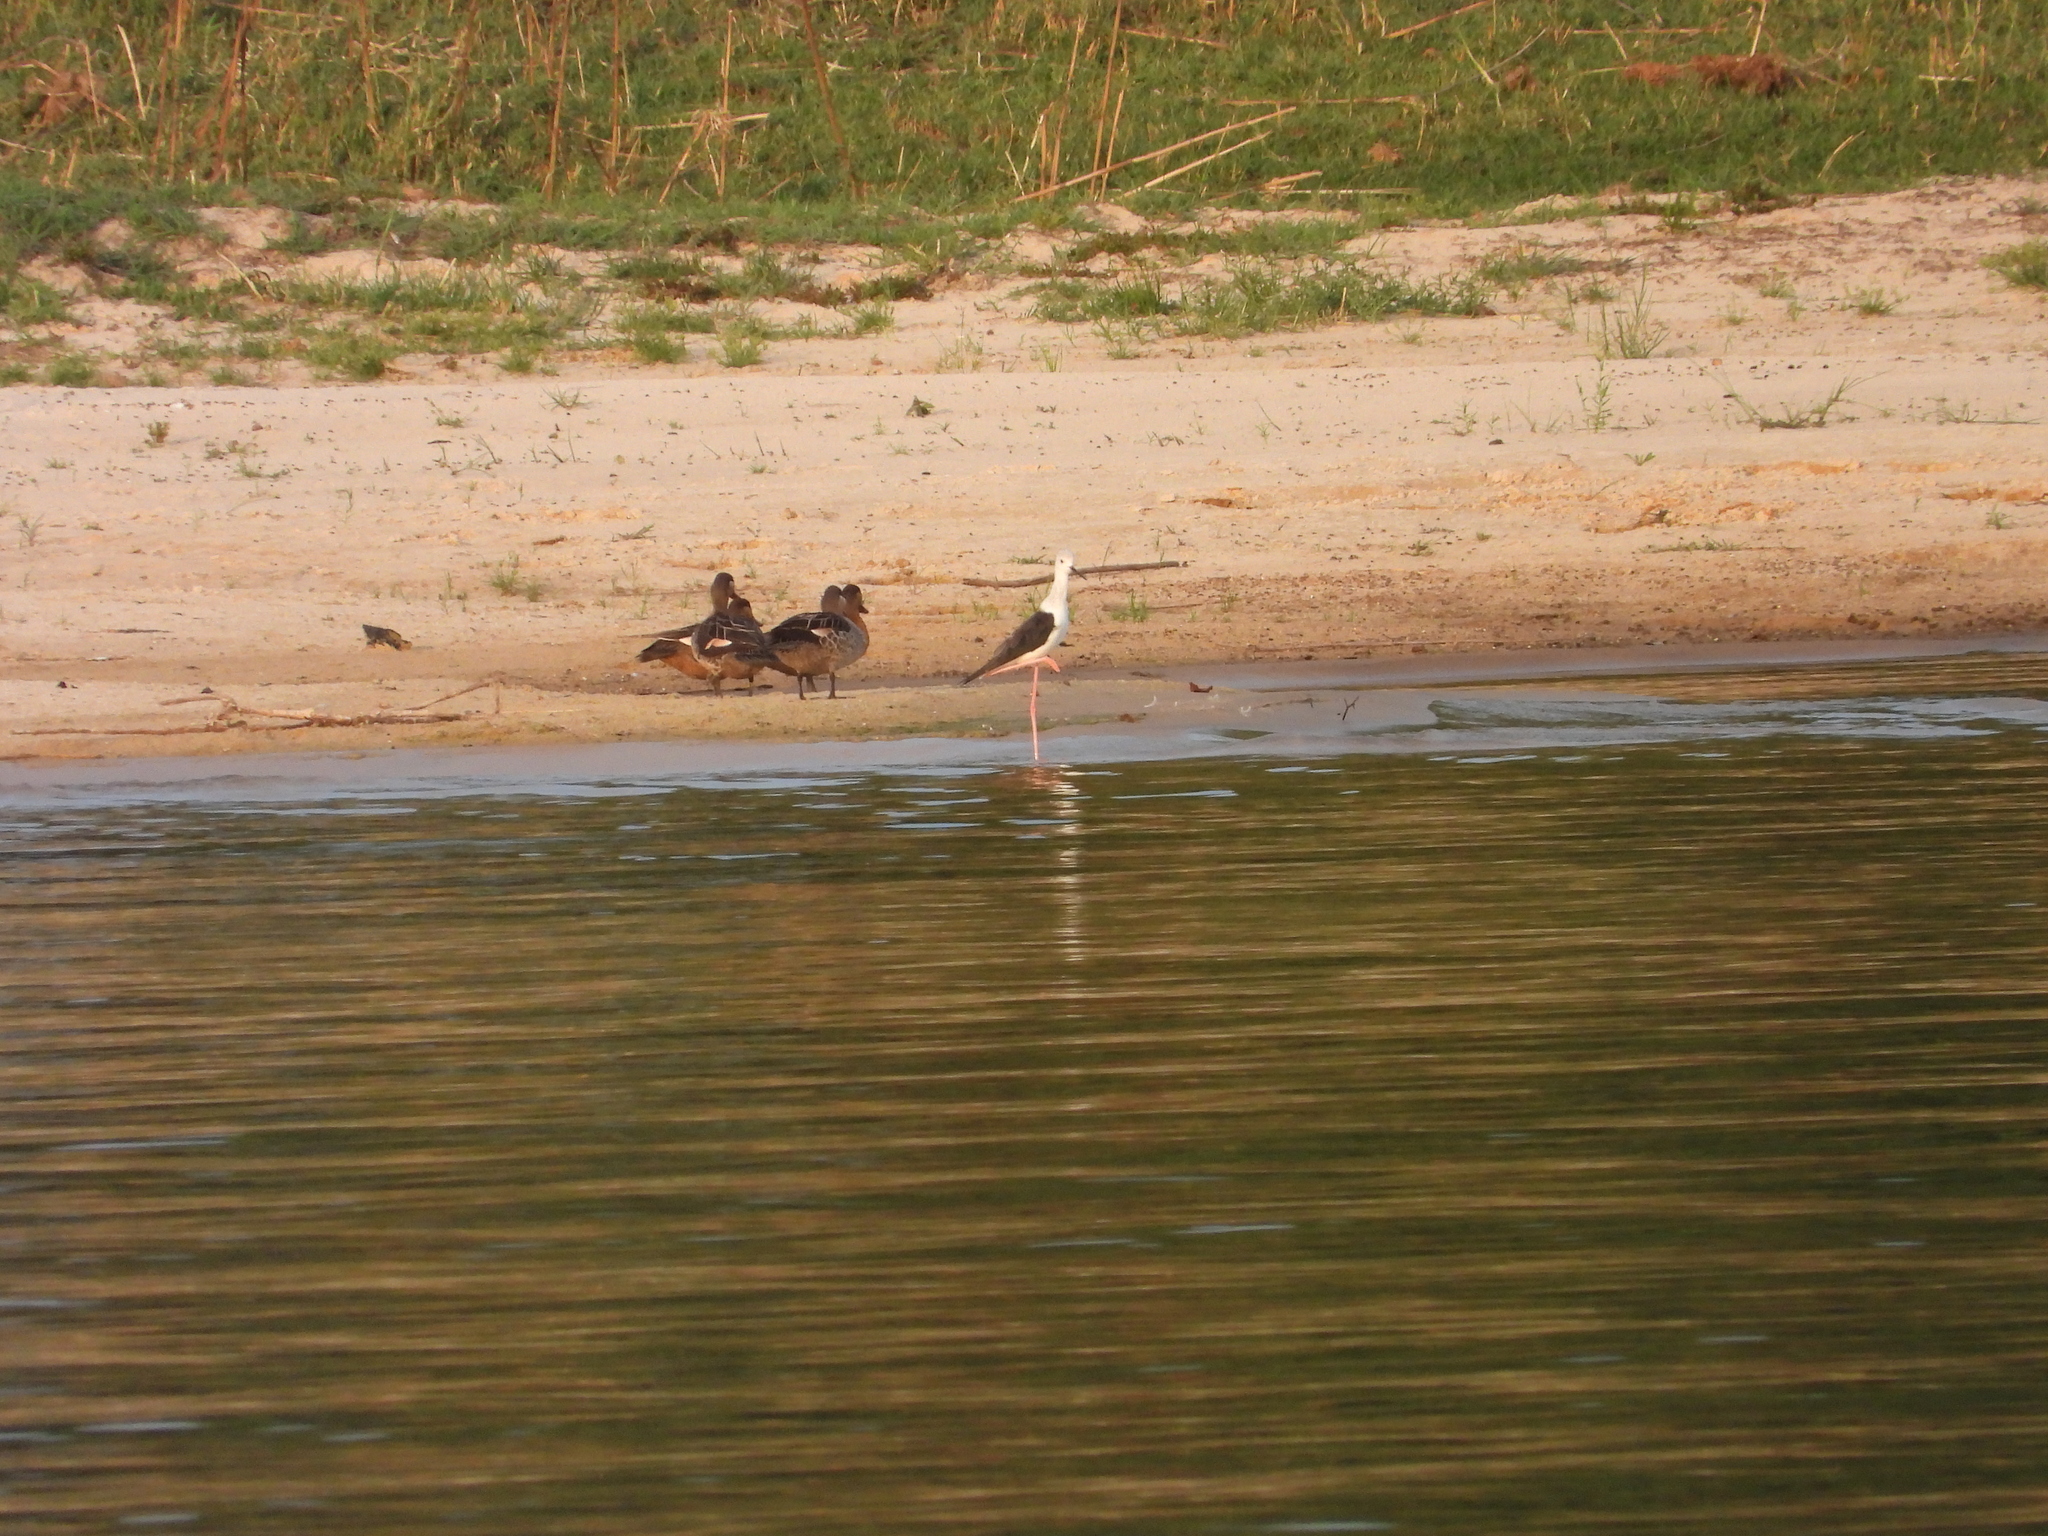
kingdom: Animalia
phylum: Chordata
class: Aves
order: Anseriformes
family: Anatidae
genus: Anas
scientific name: Anas erythrorhyncha
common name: Red-billed teal
